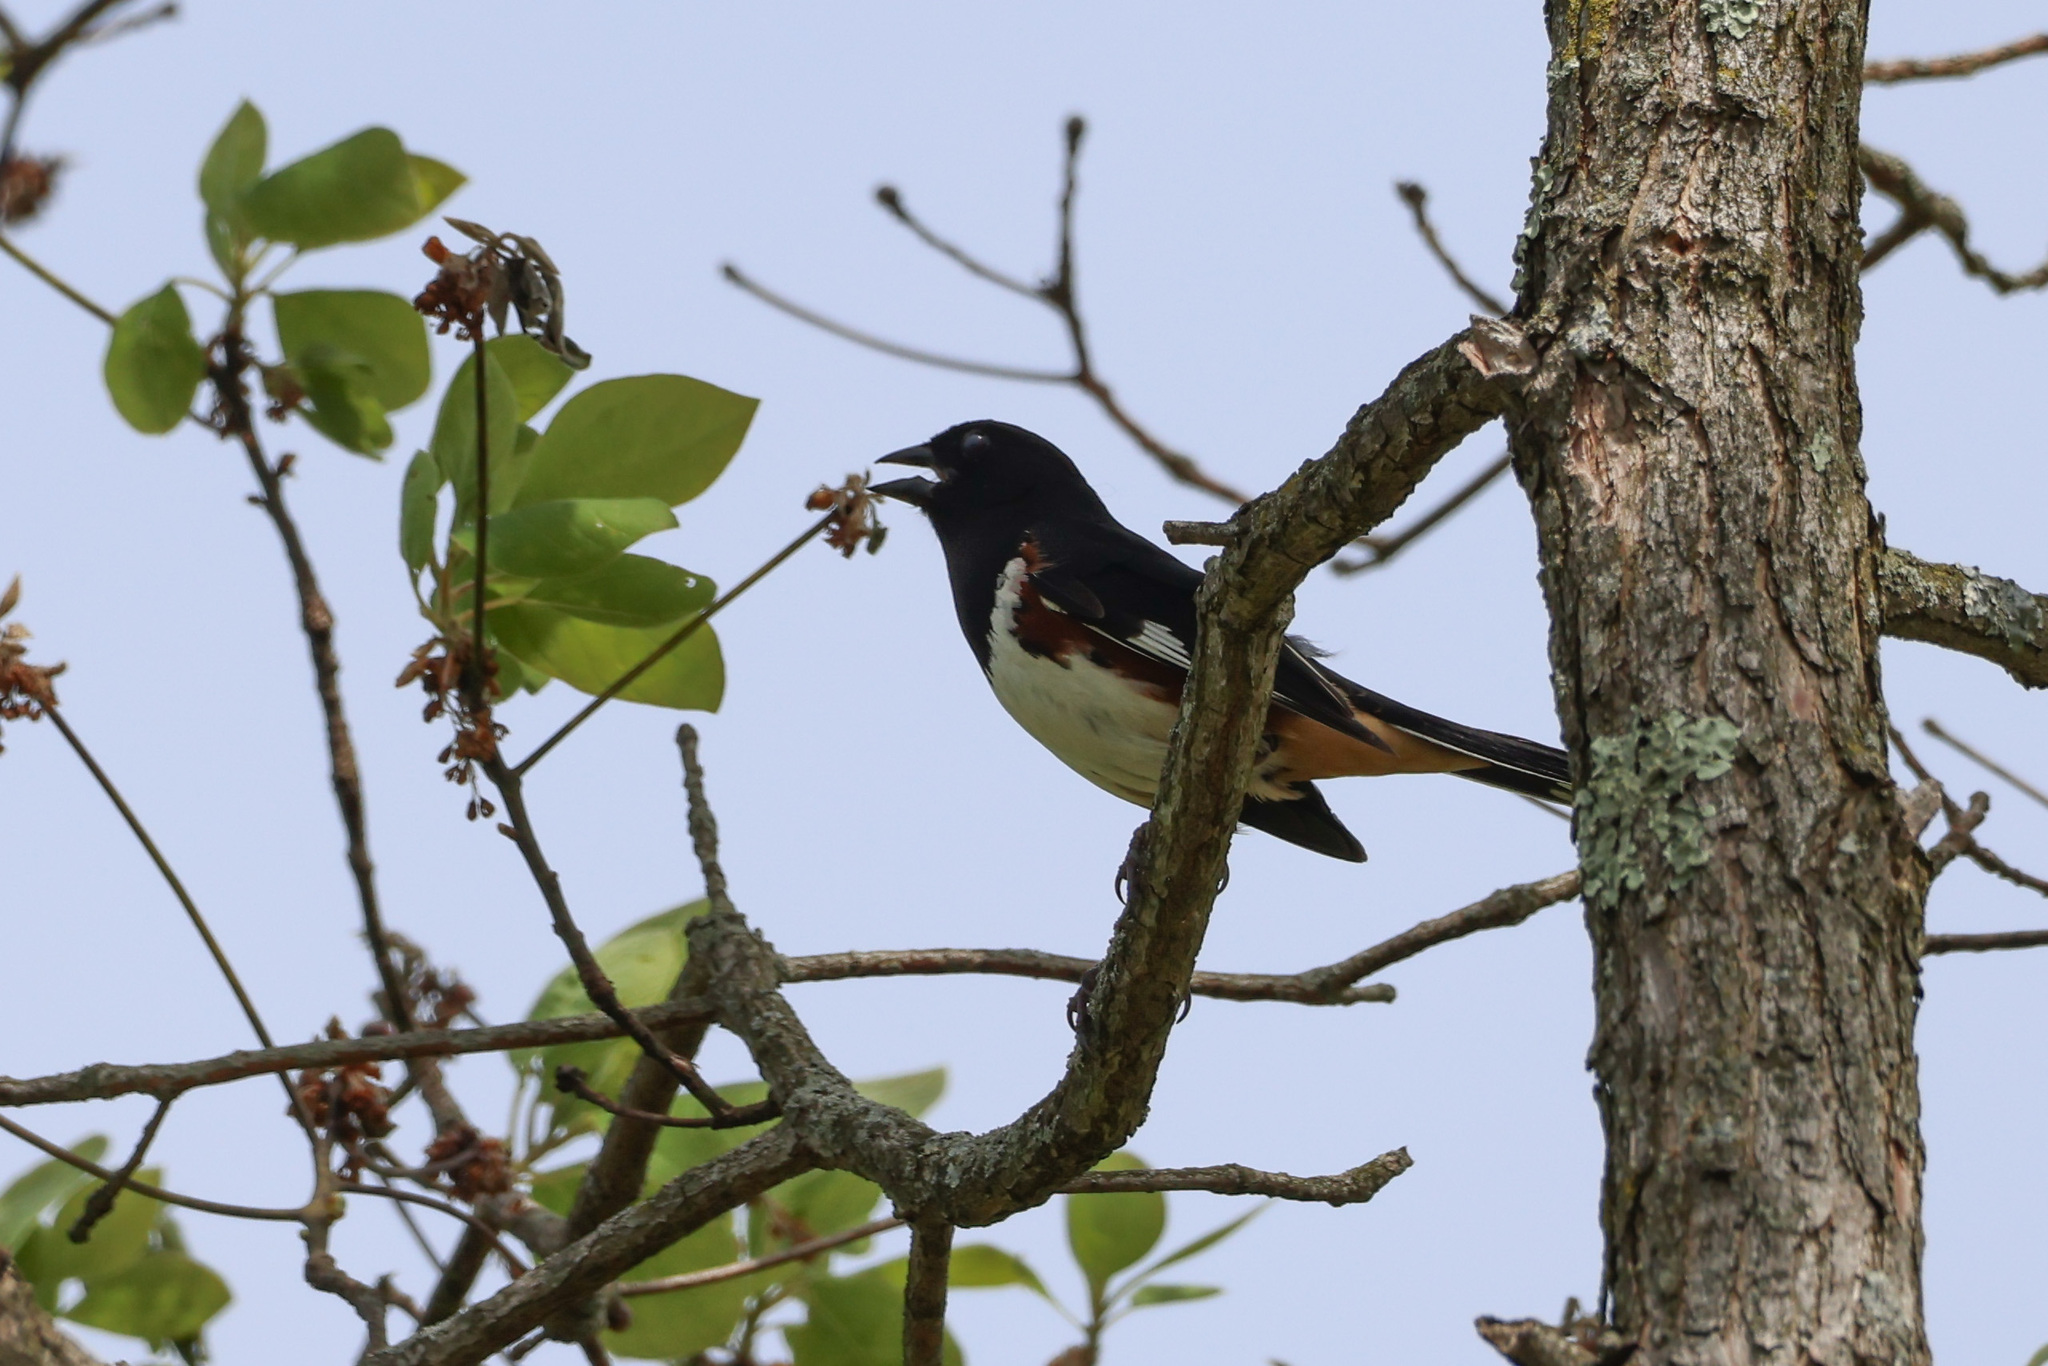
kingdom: Animalia
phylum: Chordata
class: Aves
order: Passeriformes
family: Passerellidae
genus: Pipilo
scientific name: Pipilo erythrophthalmus
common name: Eastern towhee
